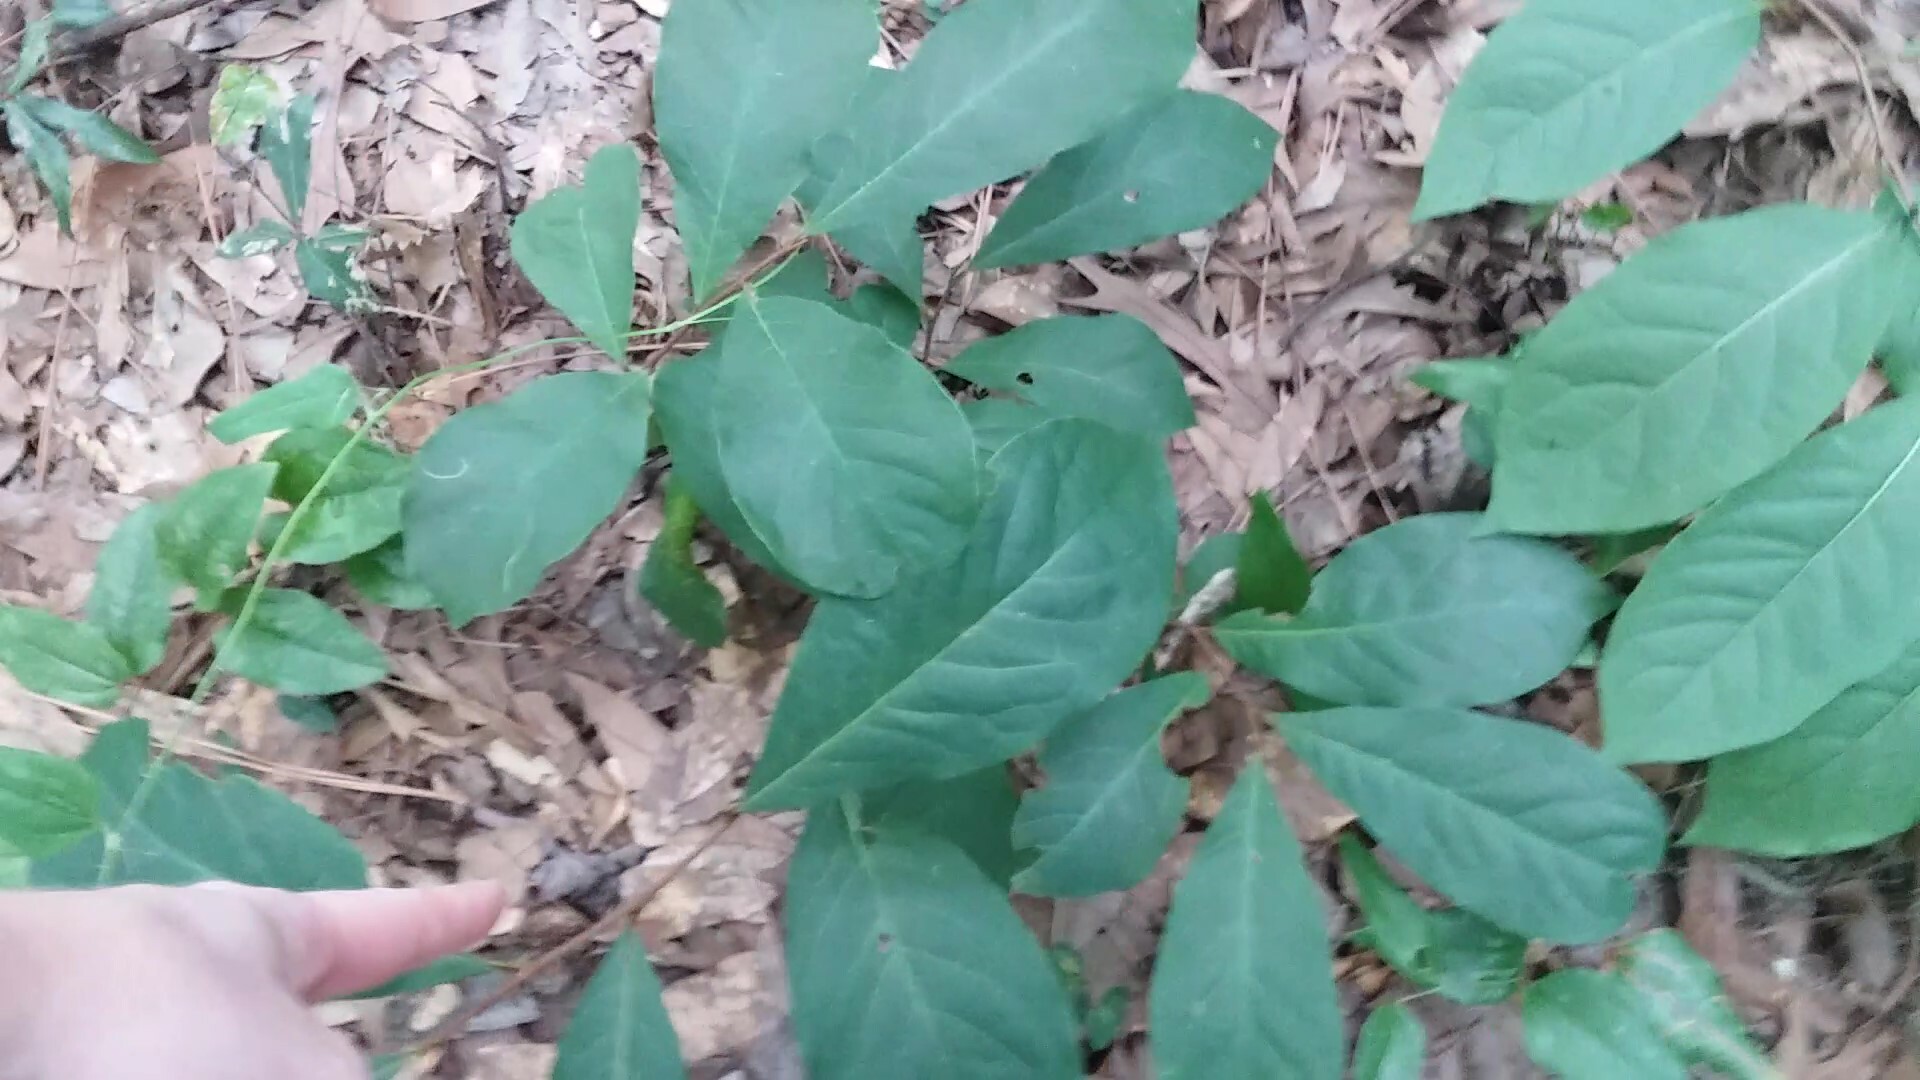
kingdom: Plantae
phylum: Tracheophyta
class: Magnoliopsida
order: Magnoliales
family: Annonaceae
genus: Asimina
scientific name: Asimina parviflora
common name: Dwarf pawpaw
